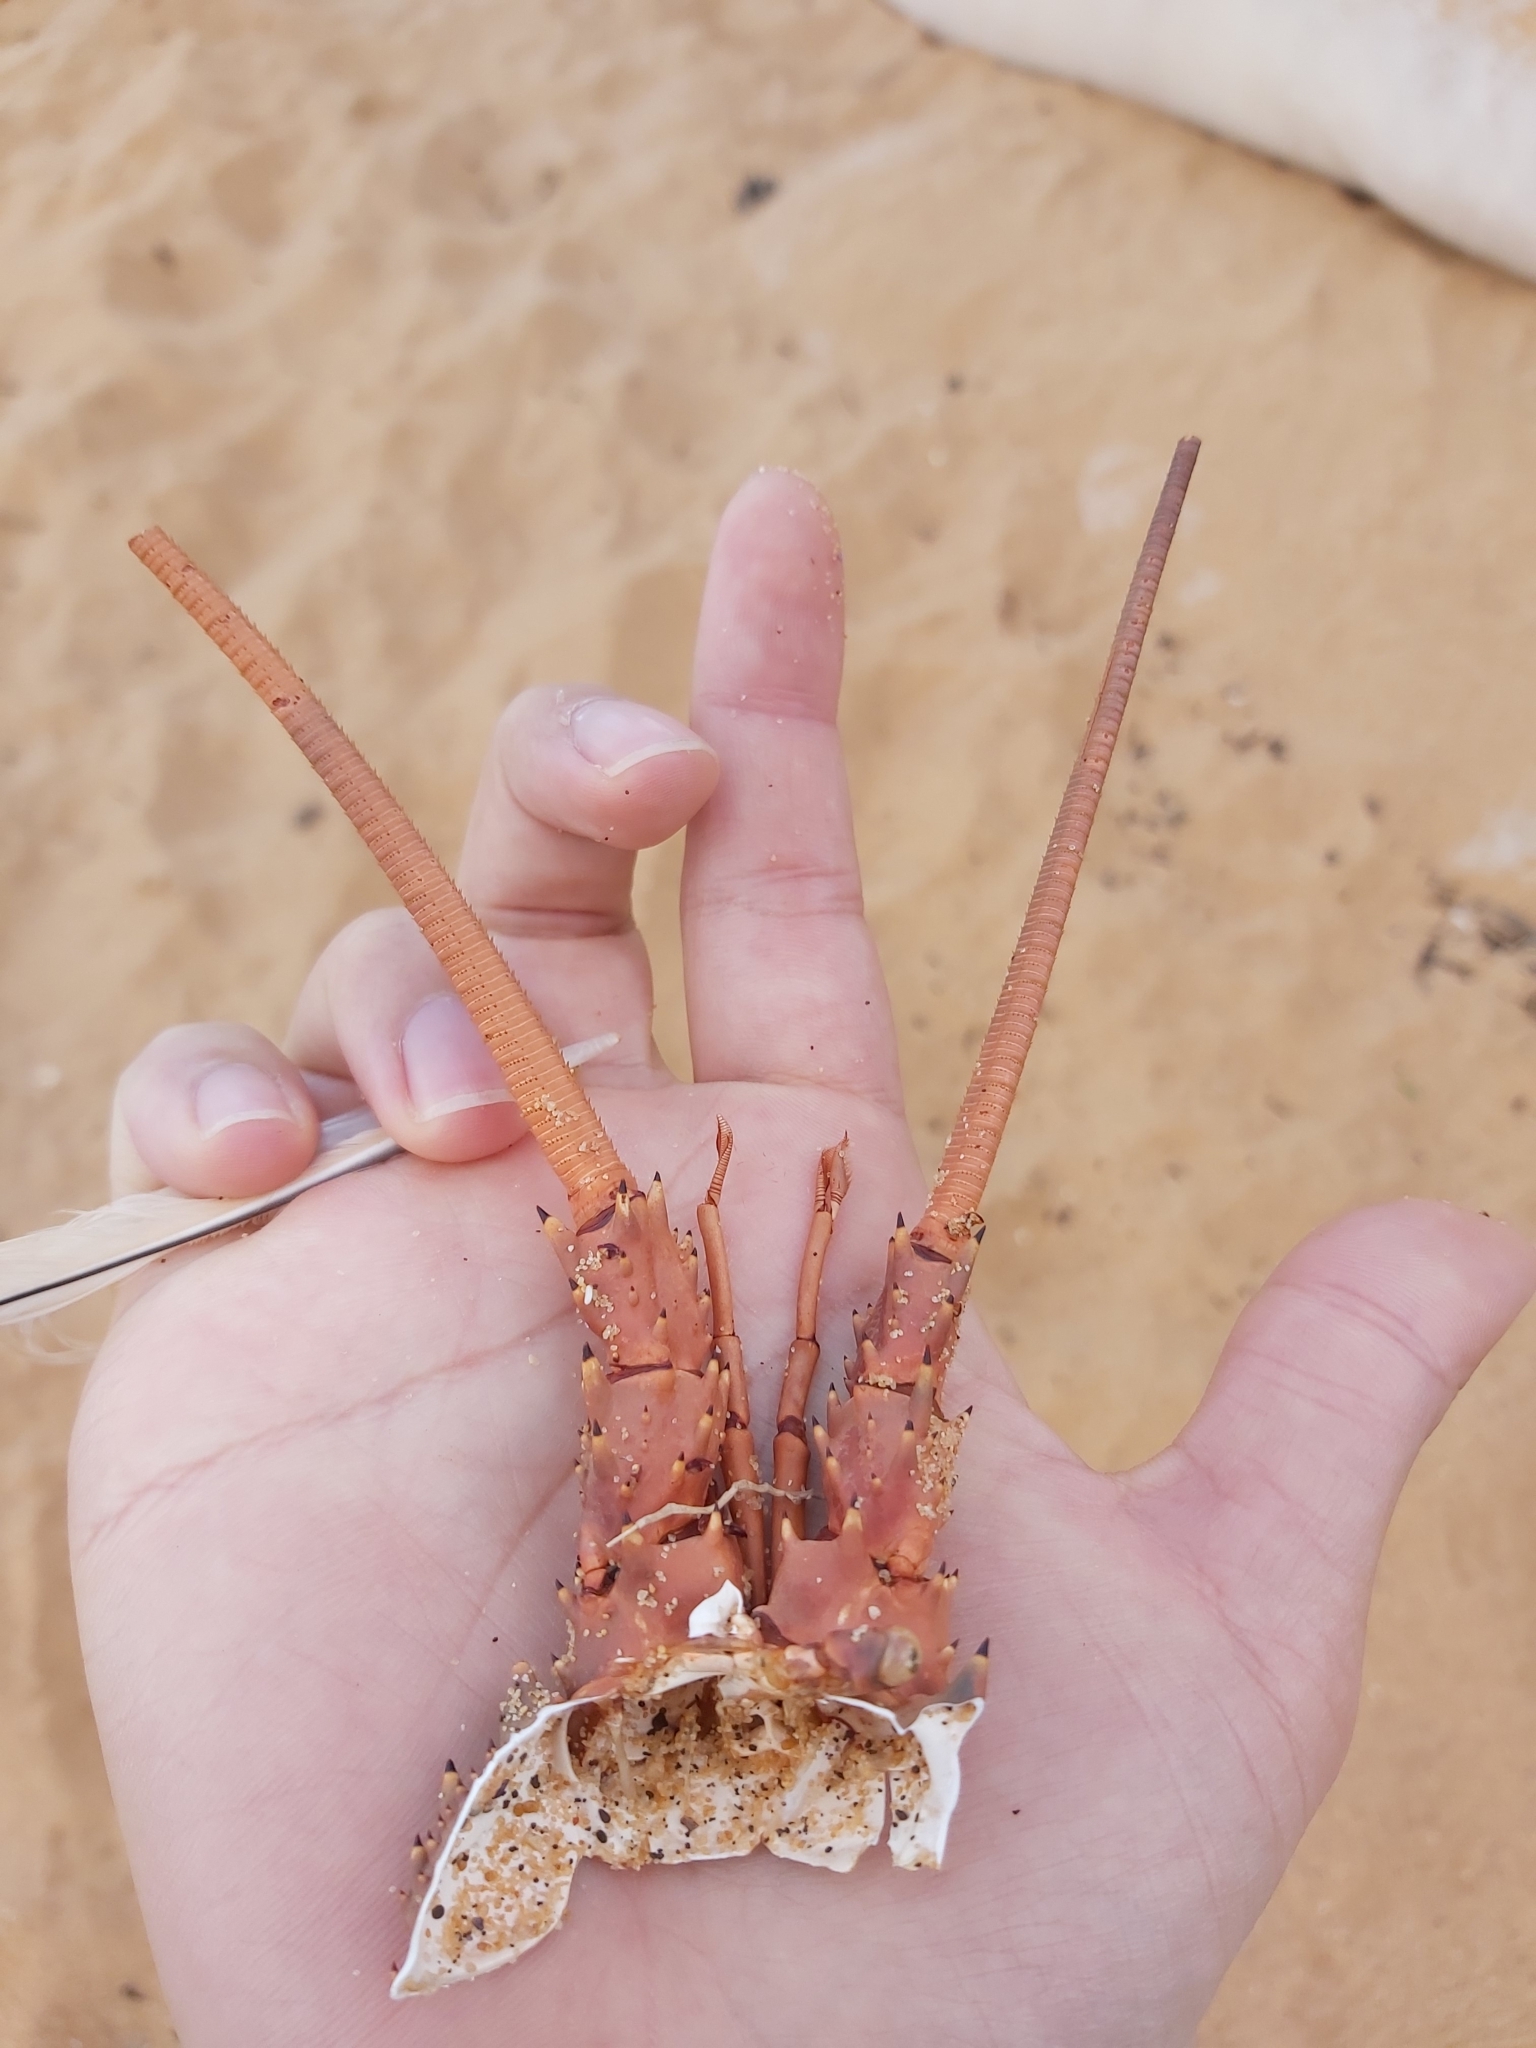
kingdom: Animalia
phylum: Arthropoda
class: Malacostraca
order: Decapoda
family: Palinuridae
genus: Sagmariasus
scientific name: Sagmariasus verreauxi
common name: Green rock lobster
